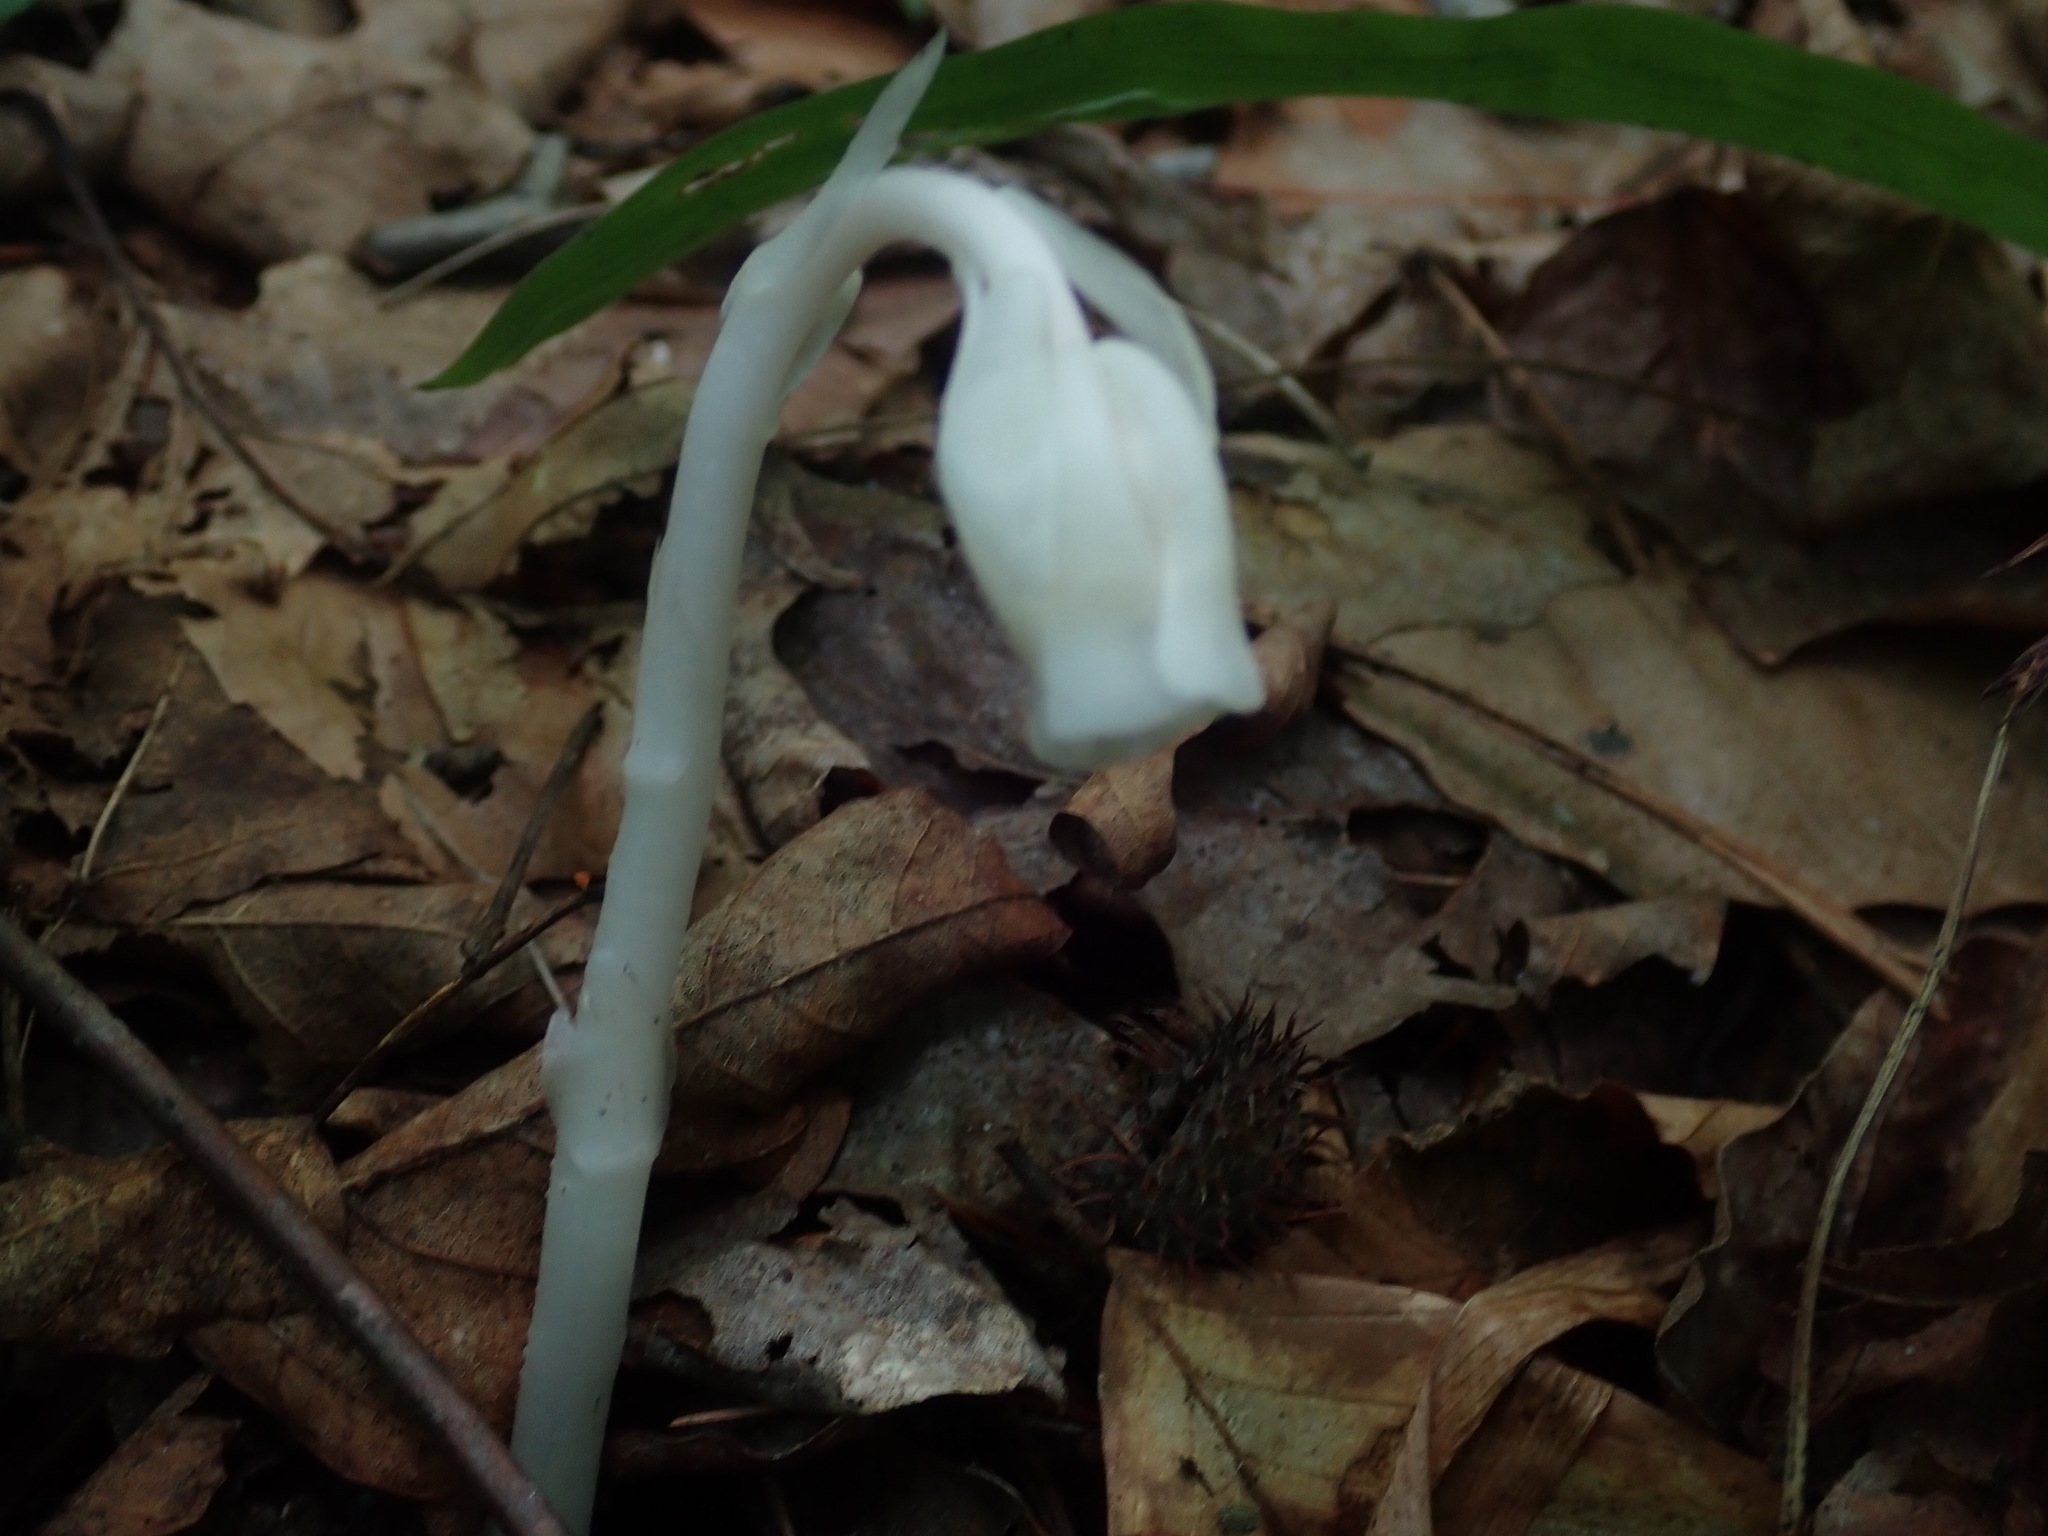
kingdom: Plantae
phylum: Tracheophyta
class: Magnoliopsida
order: Ericales
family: Ericaceae
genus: Monotropa
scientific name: Monotropa uniflora
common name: Convulsion root
